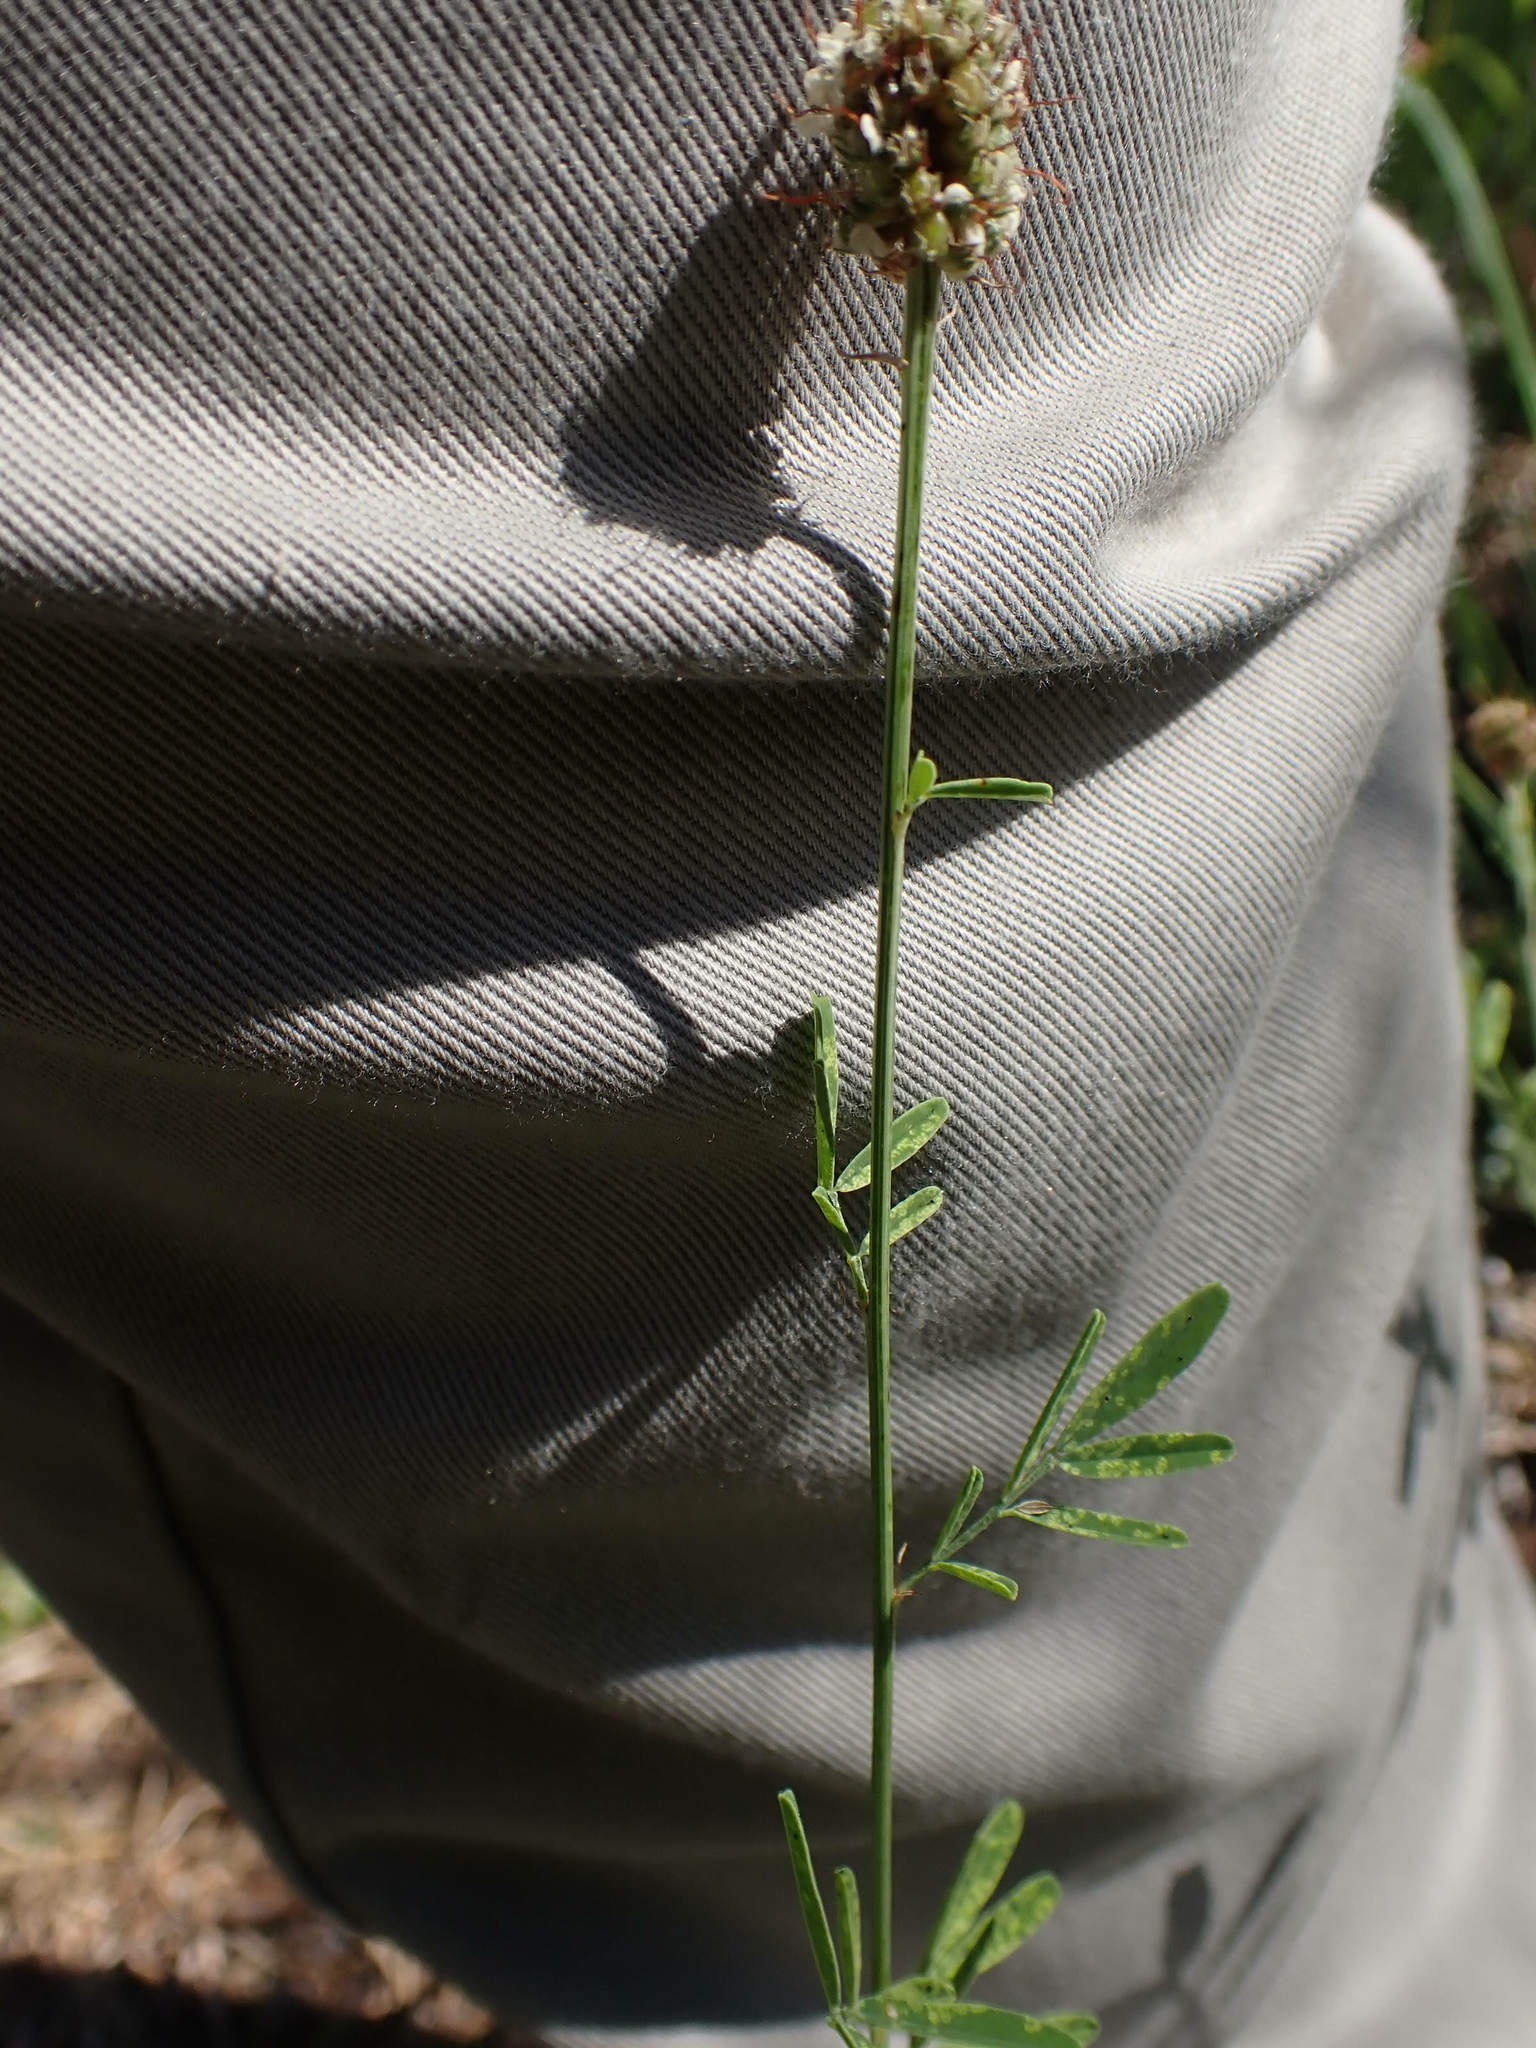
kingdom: Plantae
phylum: Tracheophyta
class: Magnoliopsida
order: Fabales
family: Fabaceae
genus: Dalea
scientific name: Dalea candida
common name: White prairie-clover
